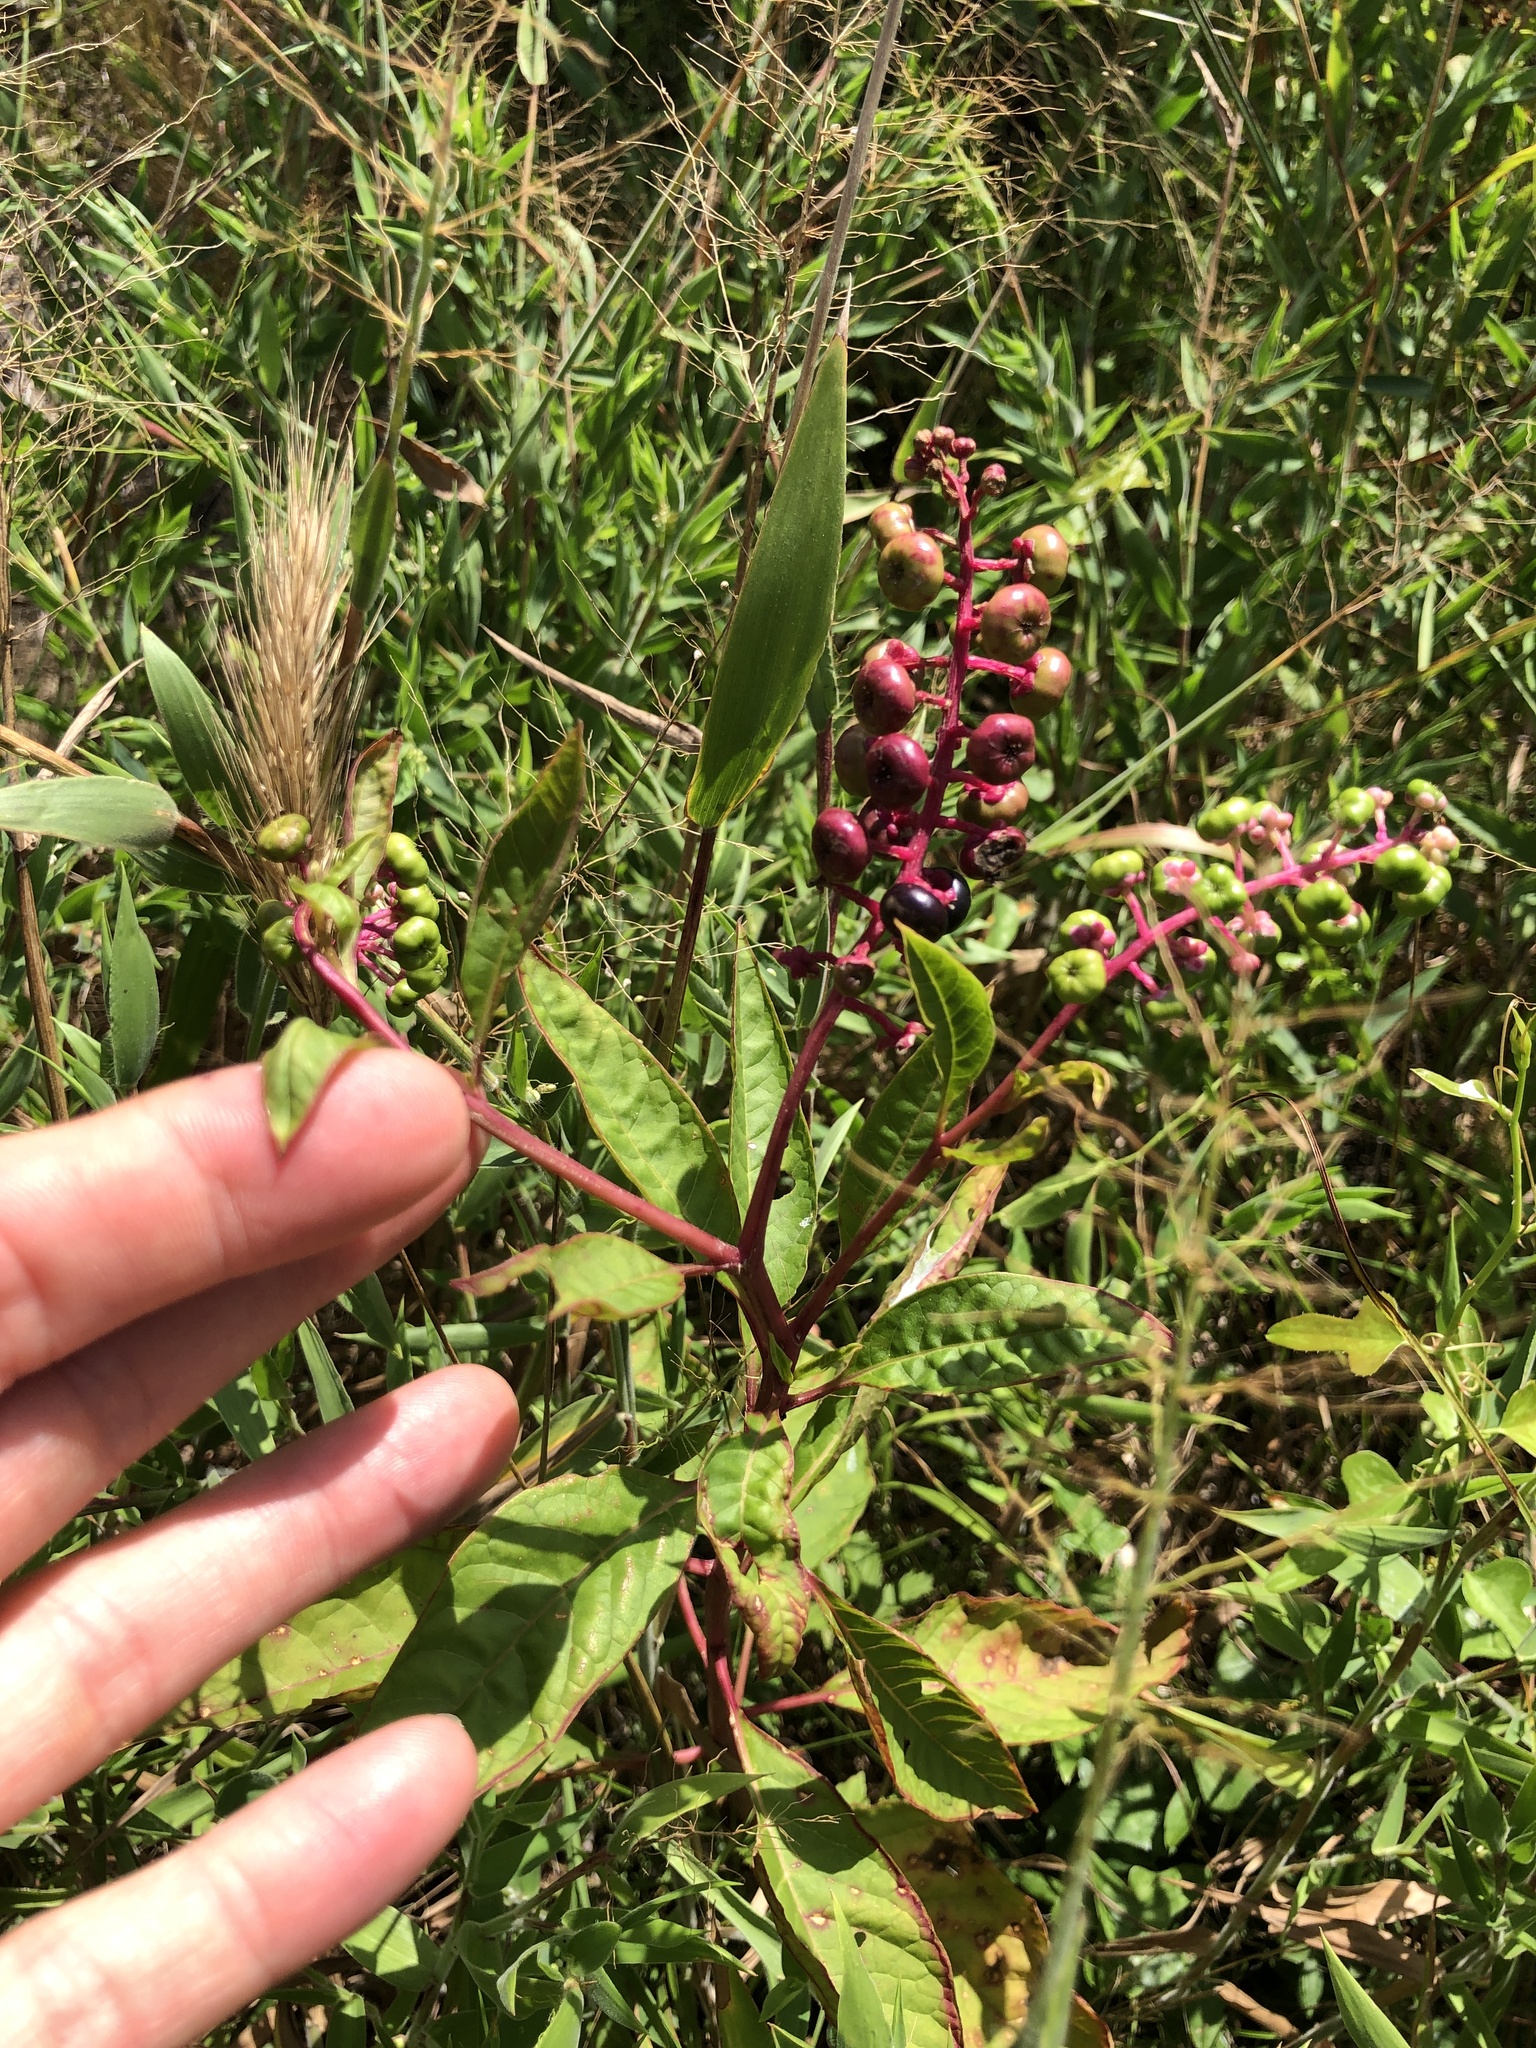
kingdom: Plantae
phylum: Tracheophyta
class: Magnoliopsida
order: Caryophyllales
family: Phytolaccaceae
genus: Phytolacca
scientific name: Phytolacca americana
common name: American pokeweed
